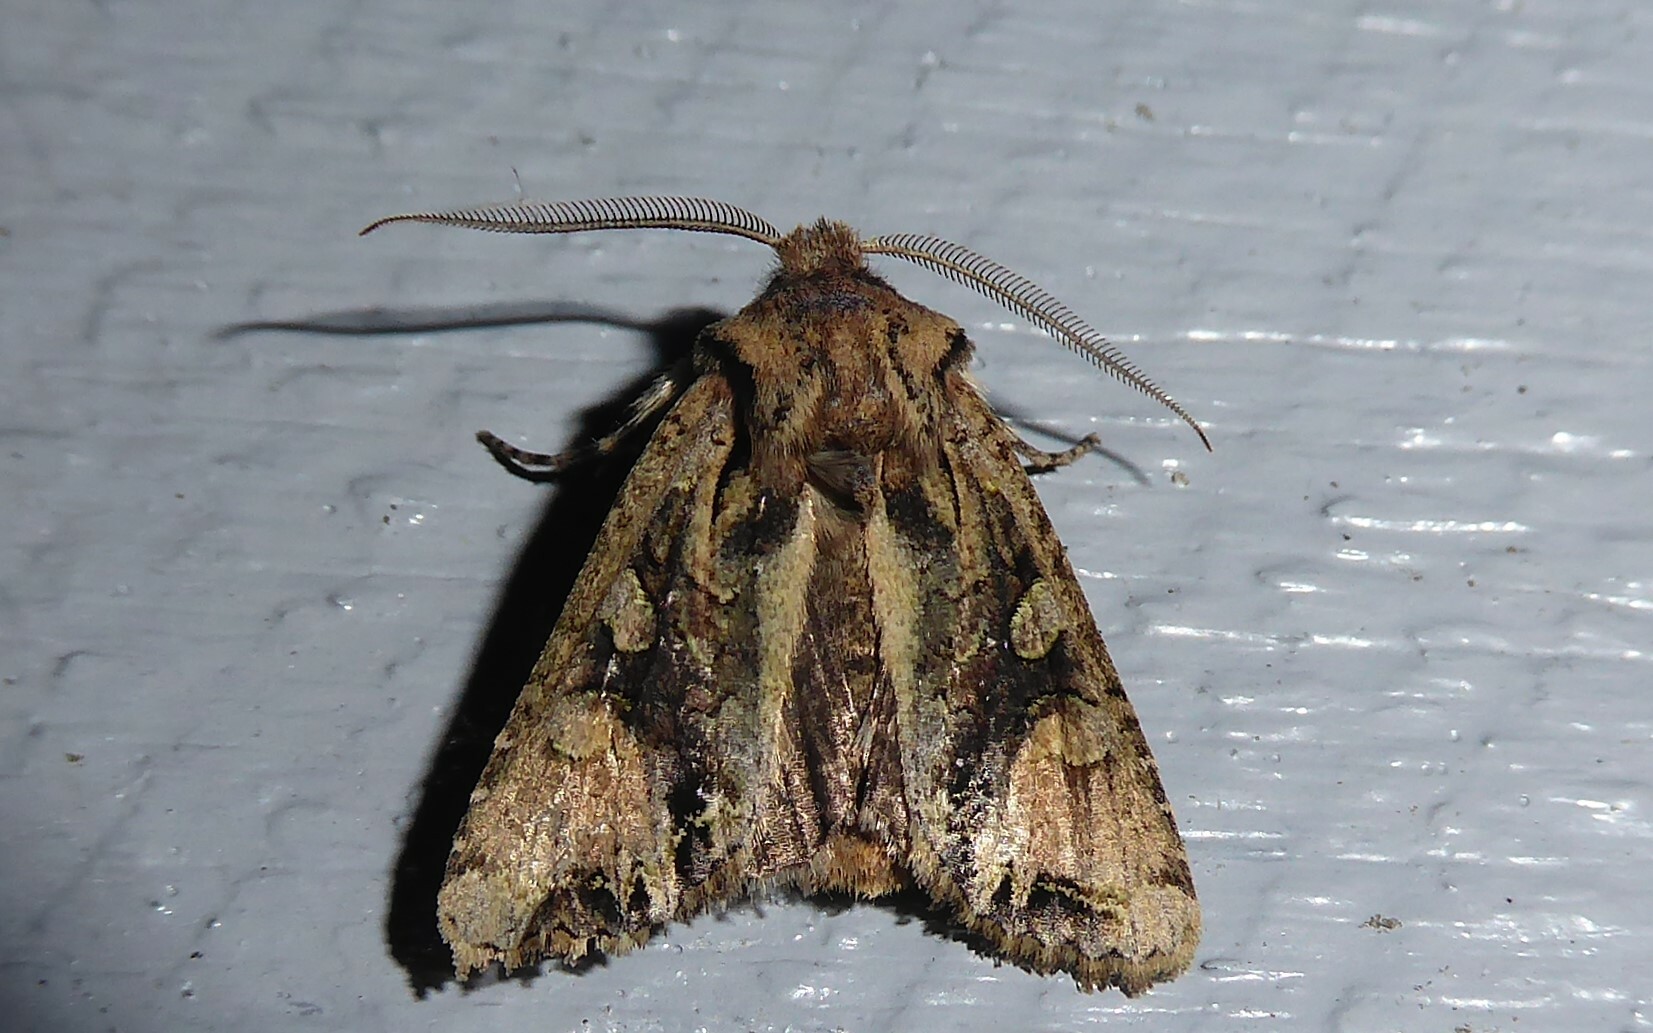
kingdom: Animalia
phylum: Arthropoda
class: Insecta
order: Lepidoptera
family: Noctuidae
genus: Ichneutica
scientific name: Ichneutica
